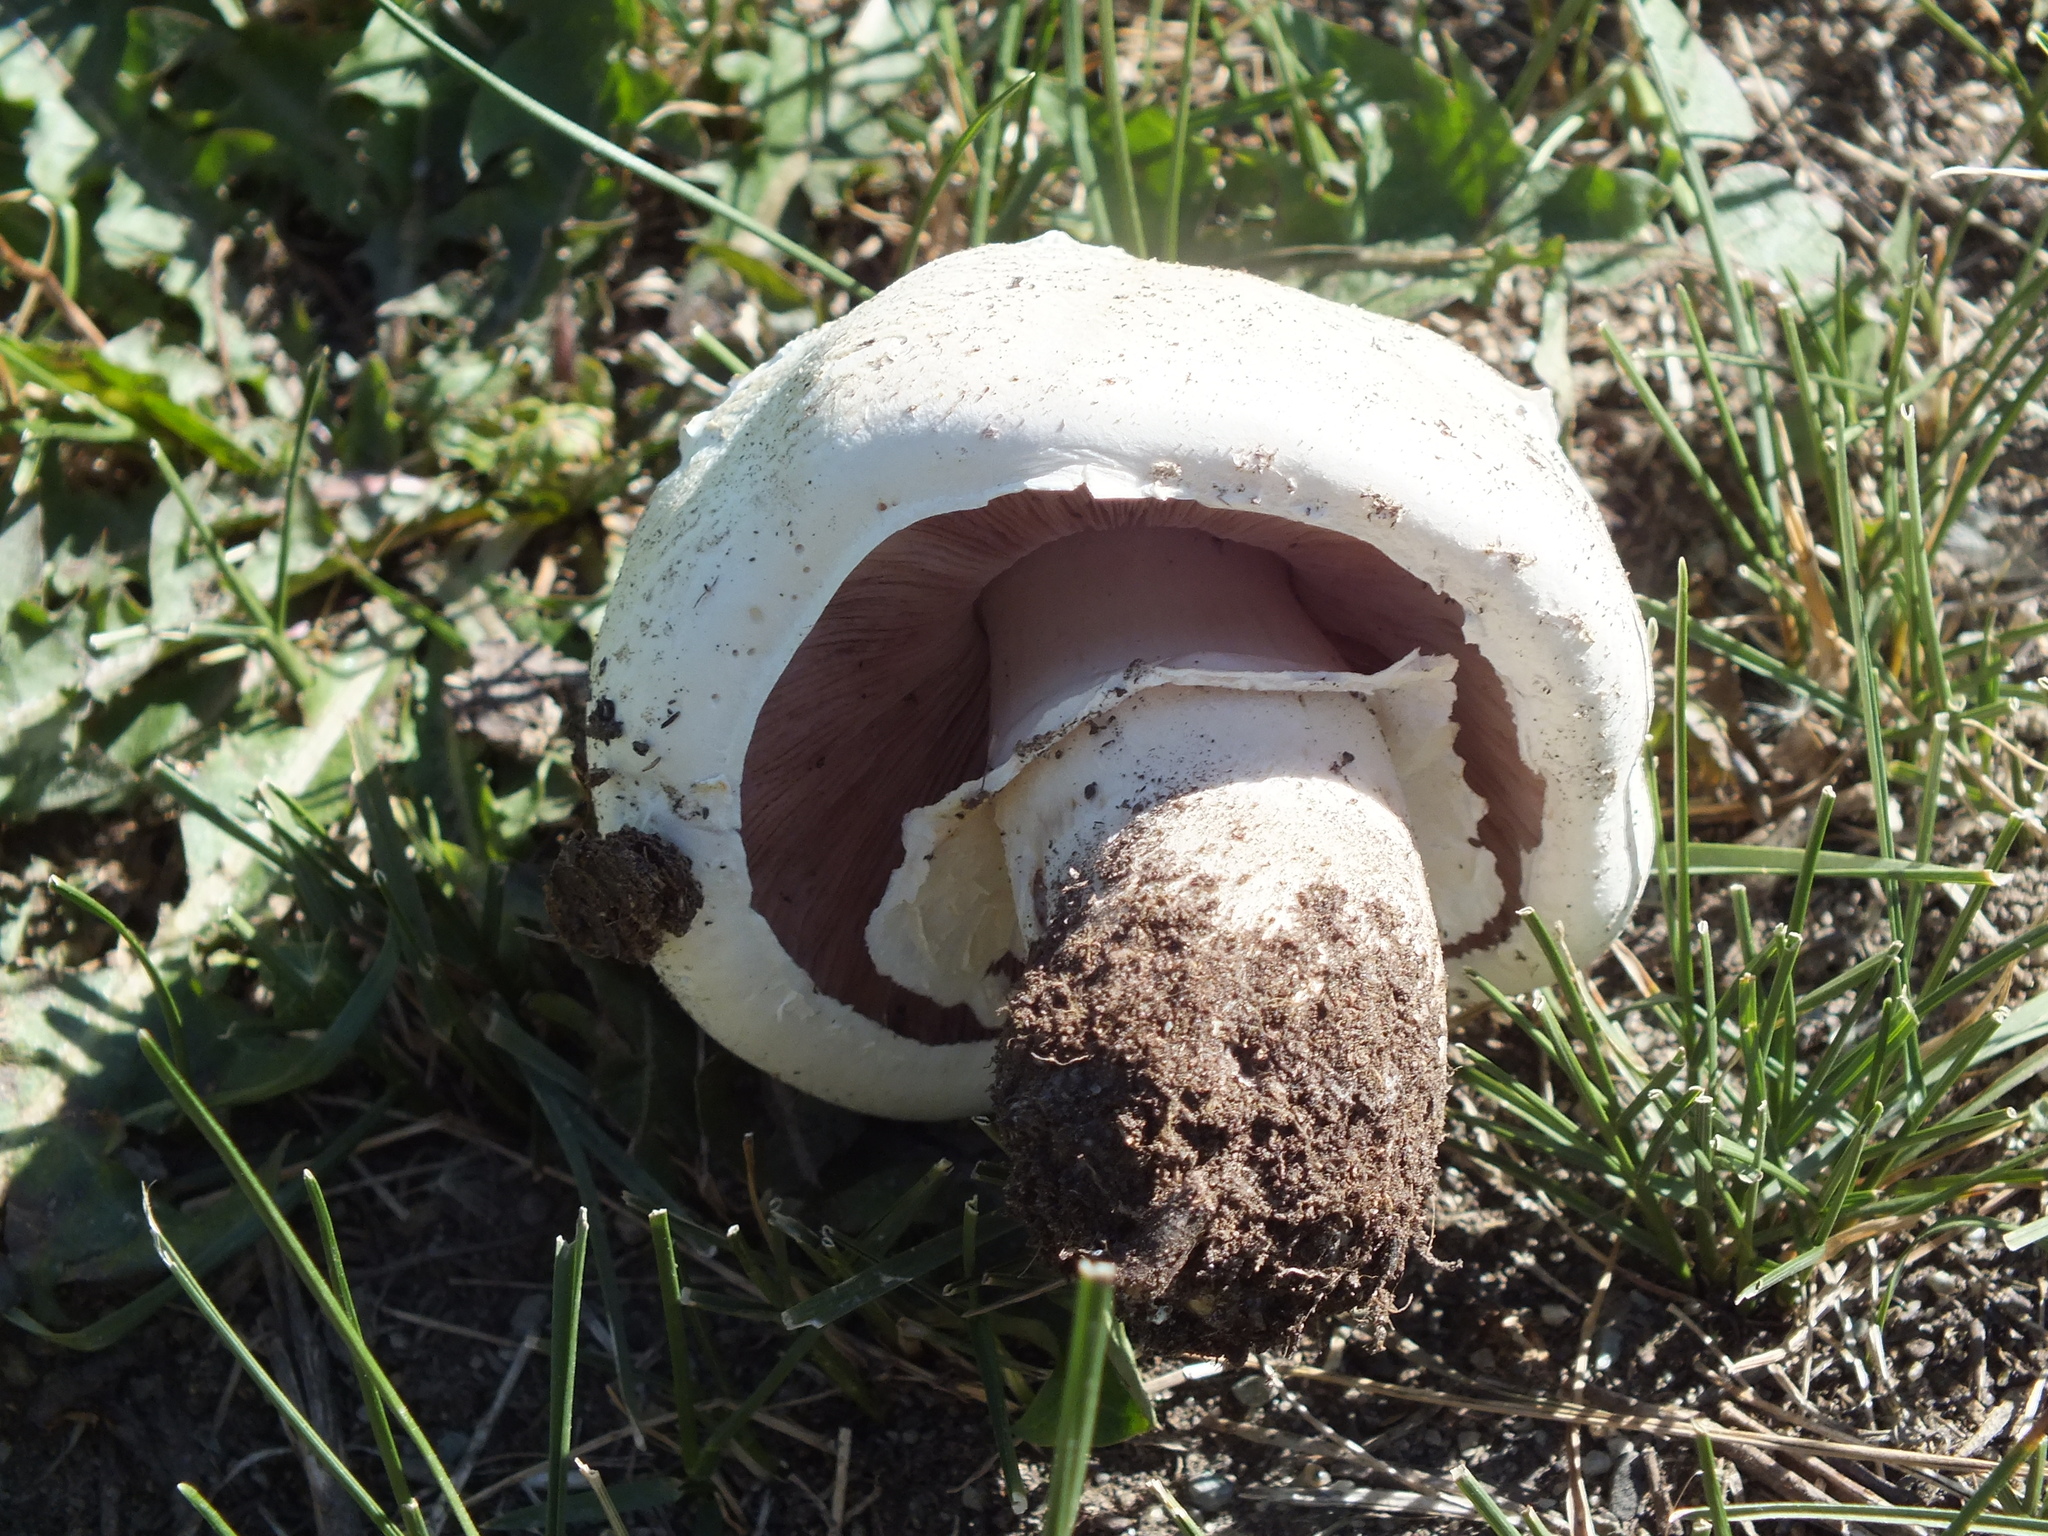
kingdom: Fungi
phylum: Basidiomycota
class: Agaricomycetes
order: Agaricales
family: Agaricaceae
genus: Agaricus
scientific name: Agaricus campestris
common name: Field mushroom
